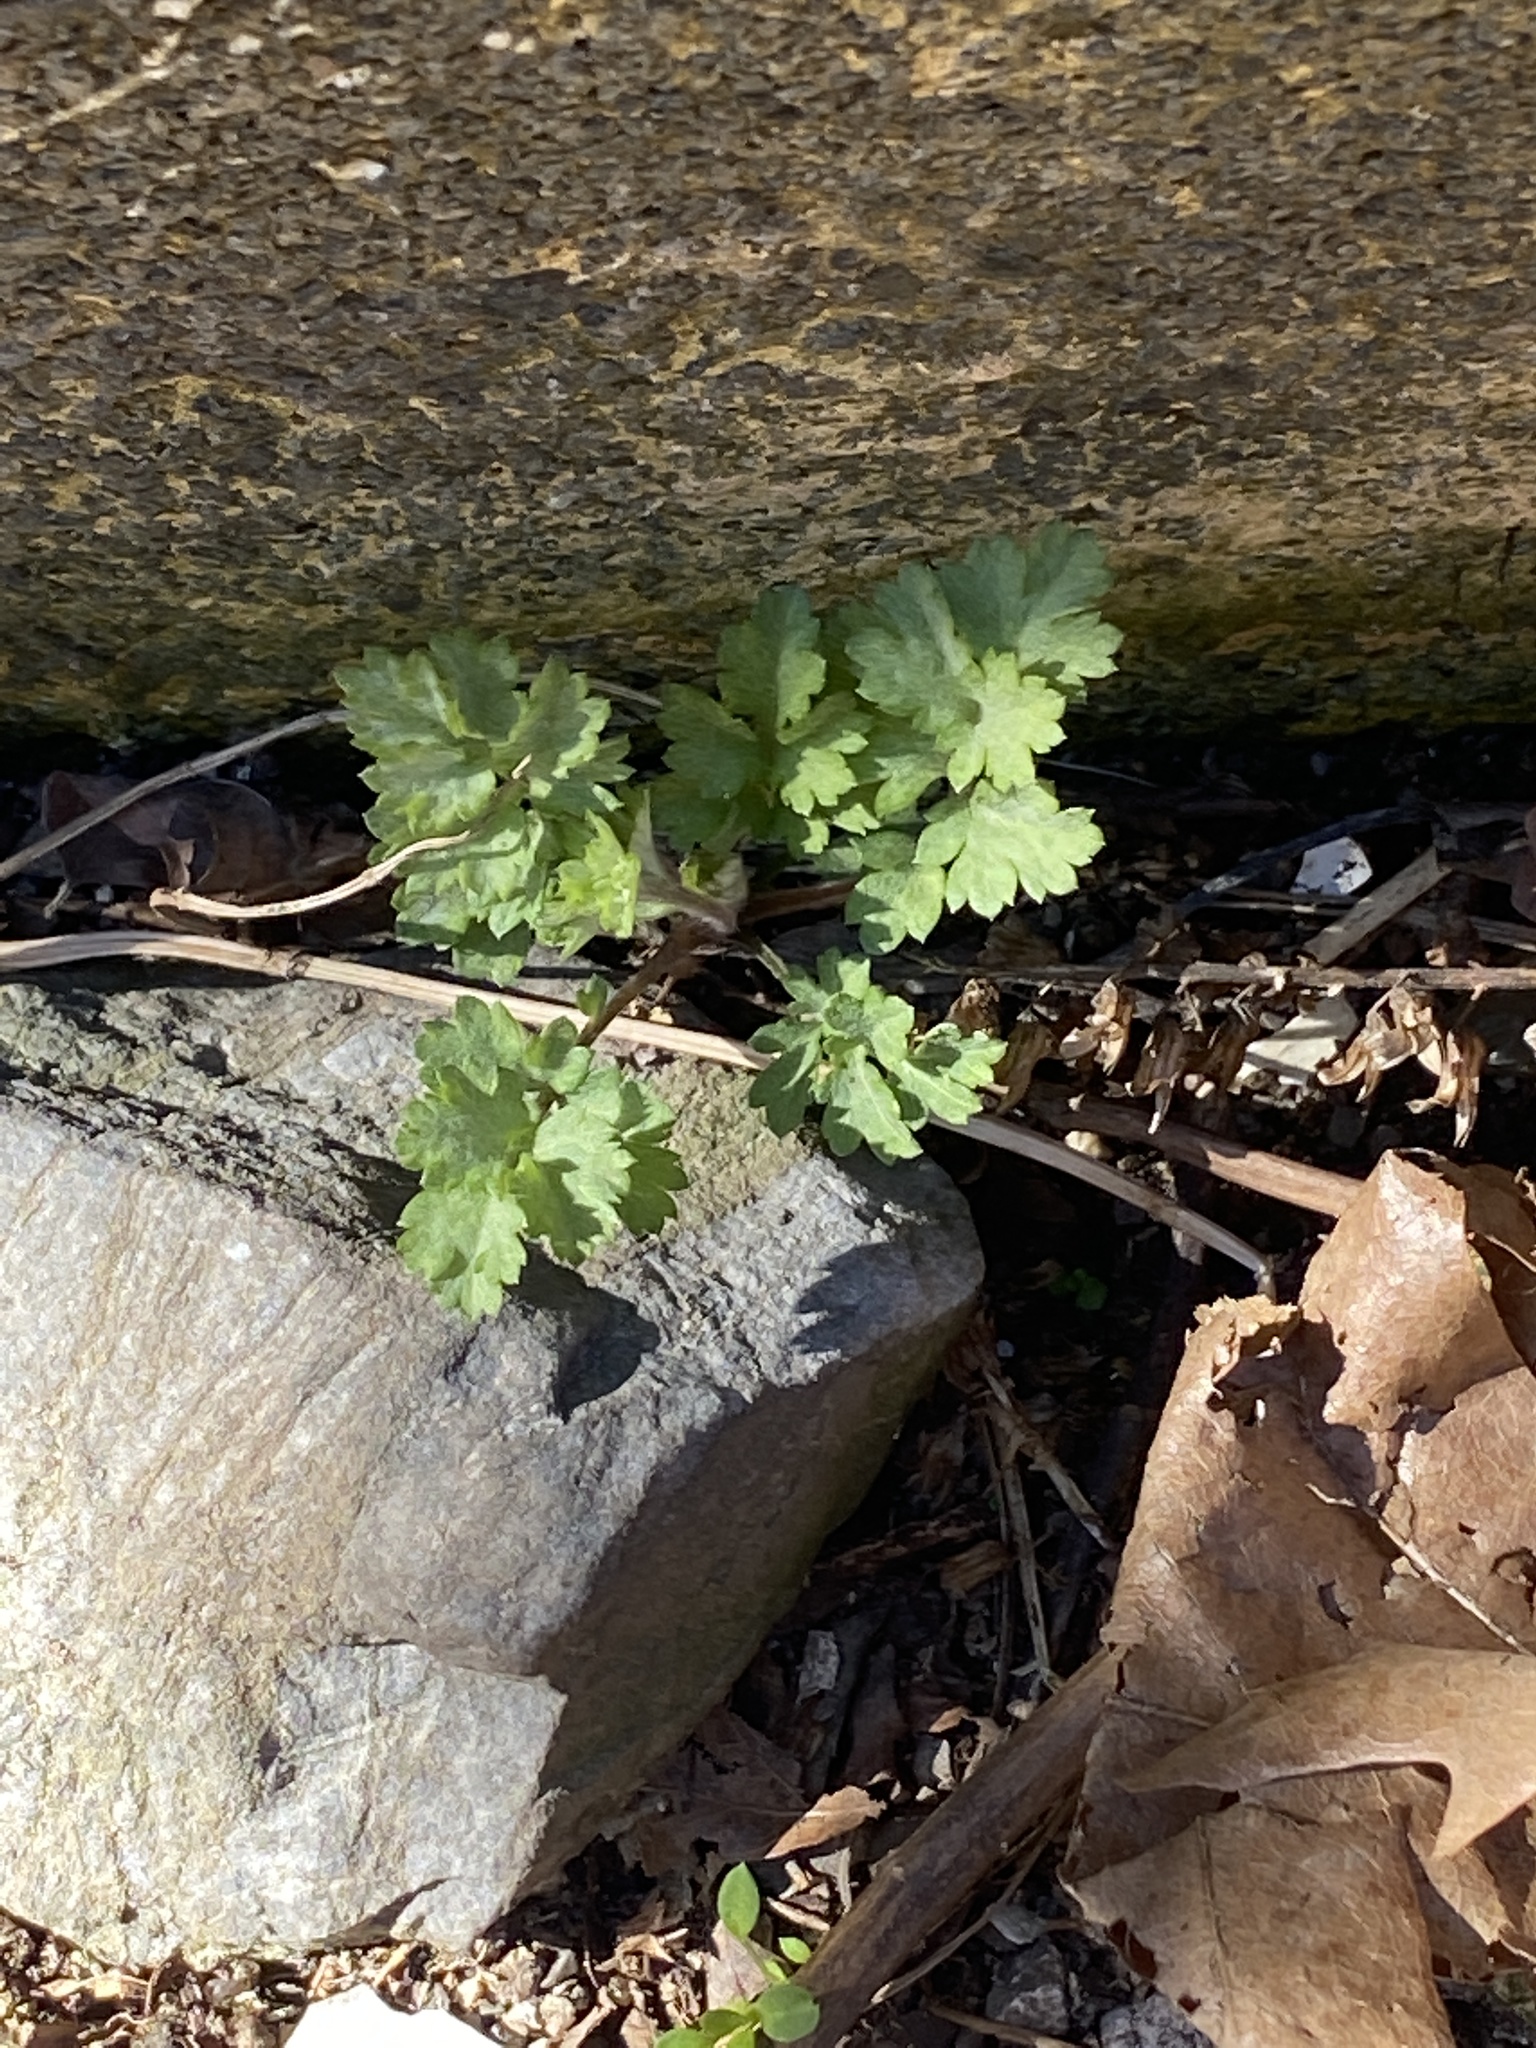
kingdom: Plantae
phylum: Tracheophyta
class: Magnoliopsida
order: Asterales
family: Asteraceae
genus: Artemisia
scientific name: Artemisia vulgaris
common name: Mugwort
